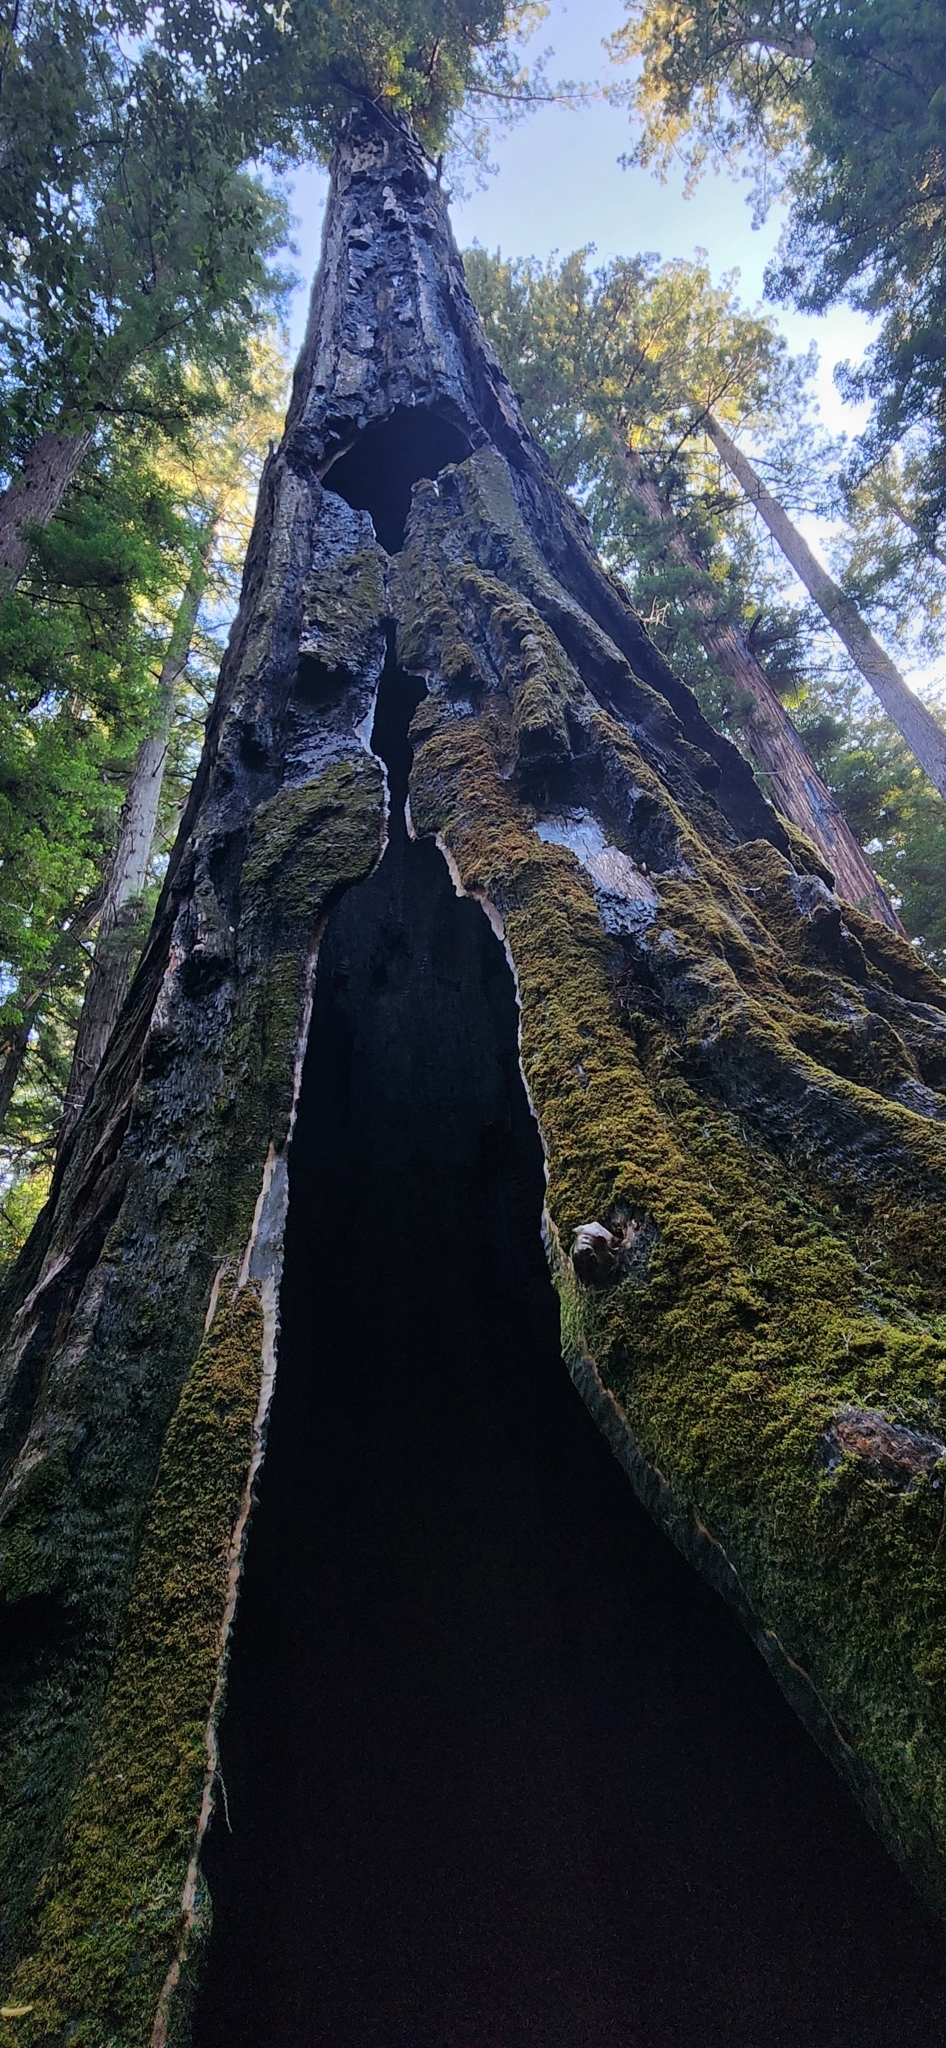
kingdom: Plantae
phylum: Tracheophyta
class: Pinopsida
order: Pinales
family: Cupressaceae
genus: Sequoia
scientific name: Sequoia sempervirens
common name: Coast redwood
